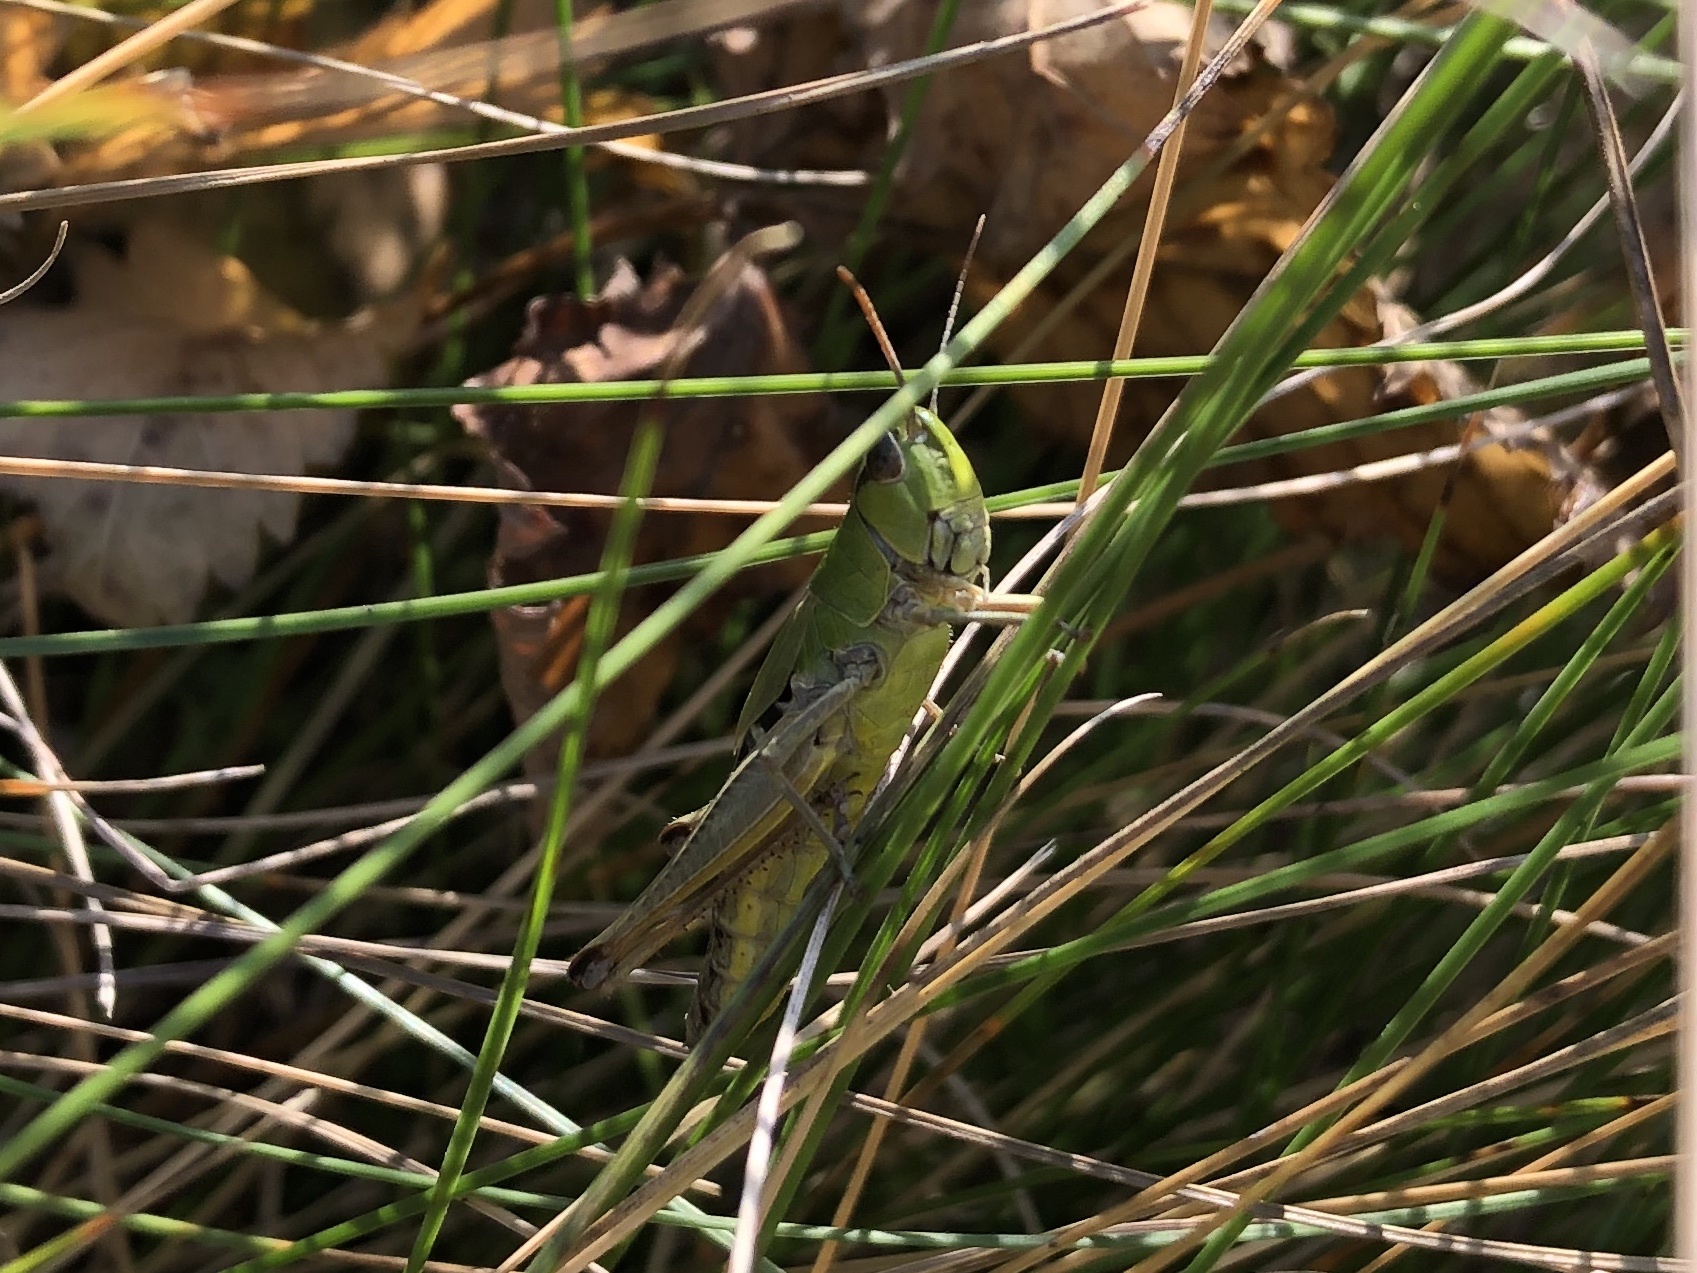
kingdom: Animalia
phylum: Arthropoda
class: Insecta
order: Orthoptera
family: Acrididae
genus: Pseudochorthippus
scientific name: Pseudochorthippus parallelus
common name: Meadow grasshopper
